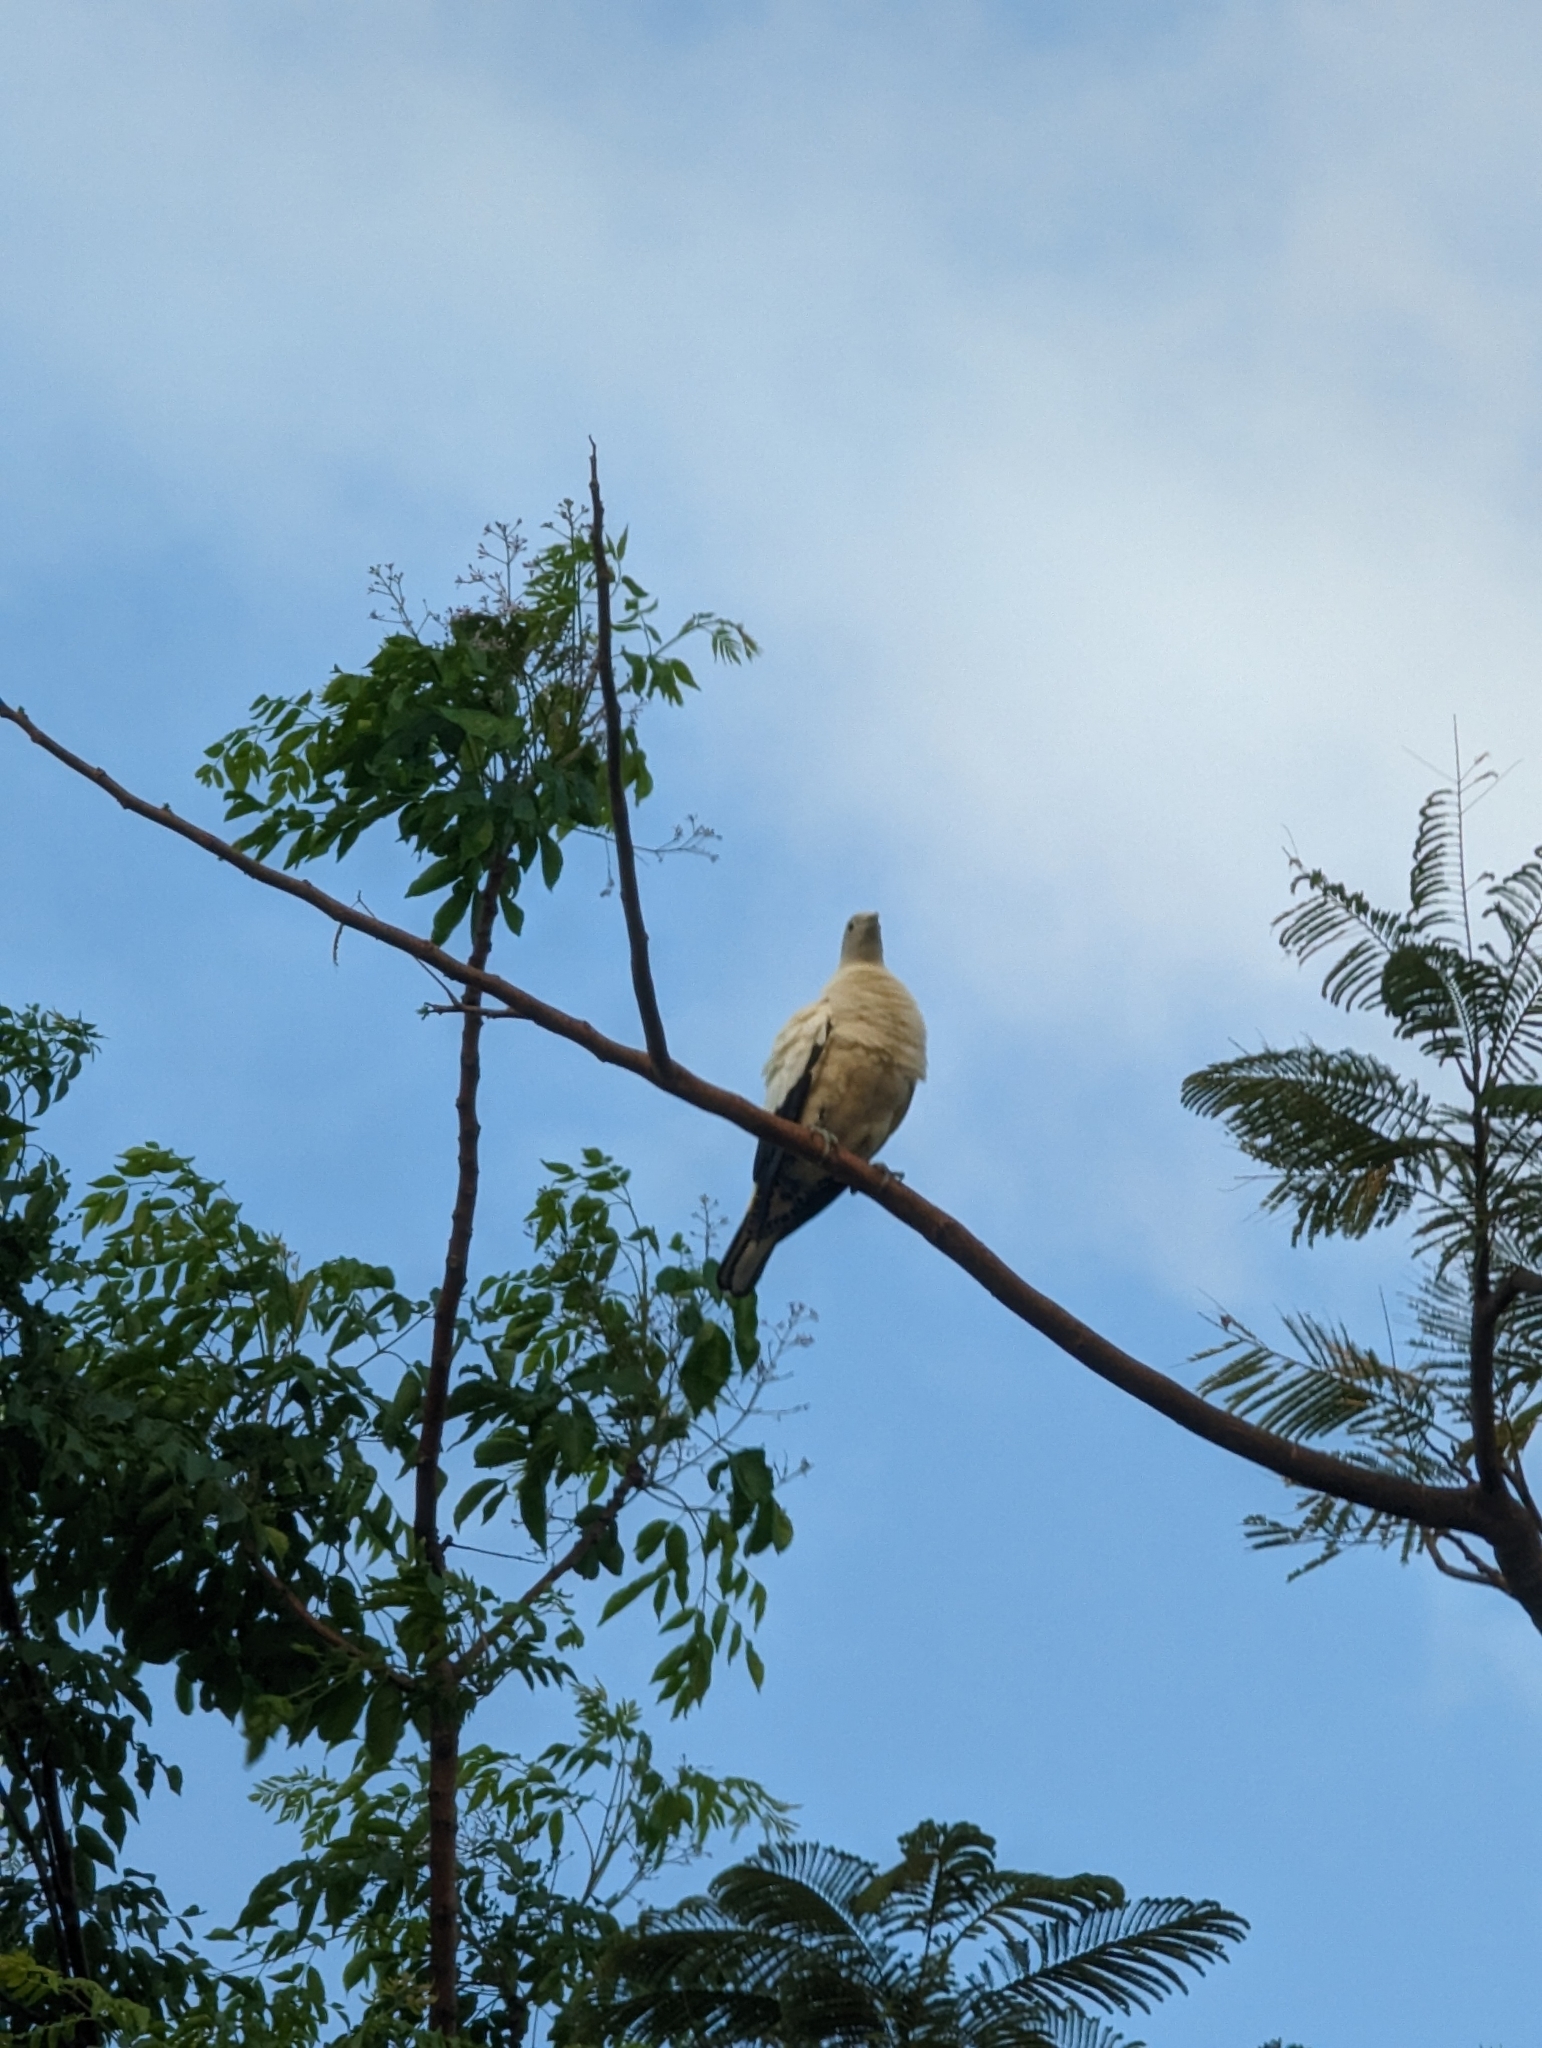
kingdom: Animalia
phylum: Chordata
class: Aves
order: Columbiformes
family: Columbidae
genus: Ducula
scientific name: Ducula spilorrhoa
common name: Torresian imperial pigeon
